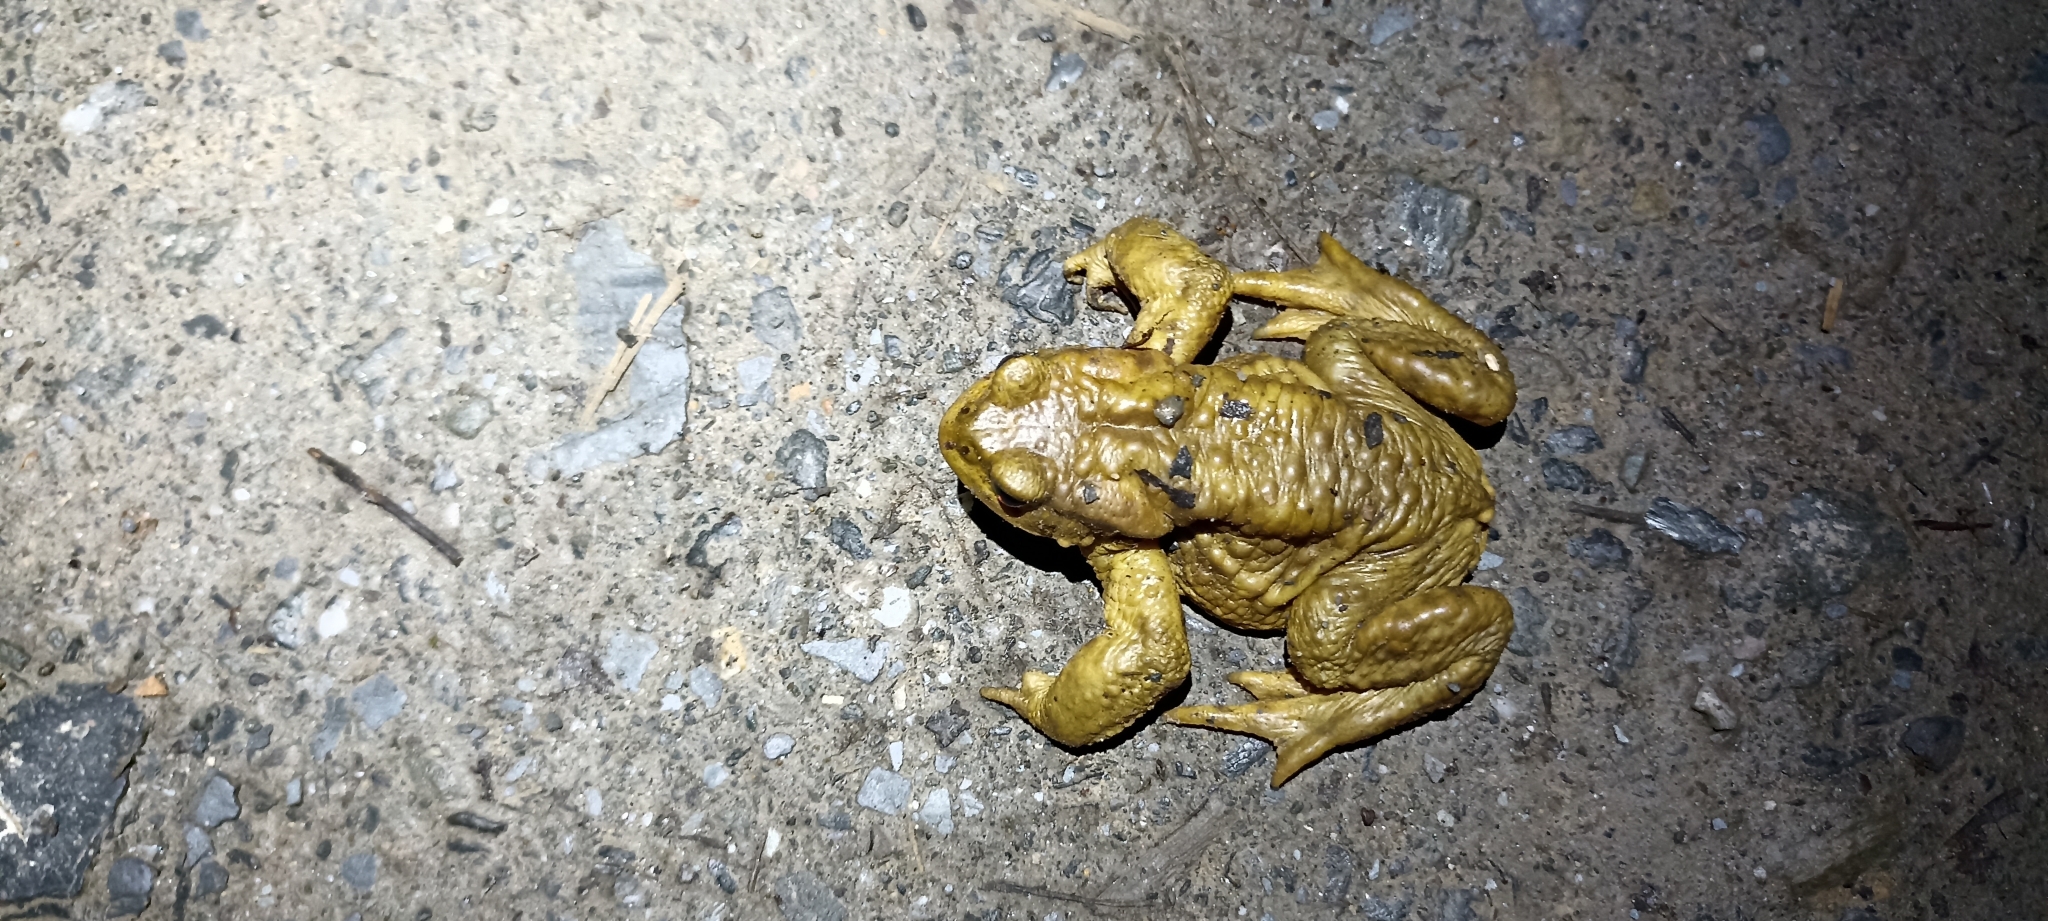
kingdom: Animalia
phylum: Chordata
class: Amphibia
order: Anura
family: Bufonidae
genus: Bufo
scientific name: Bufo spinosus
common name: Western common toad
